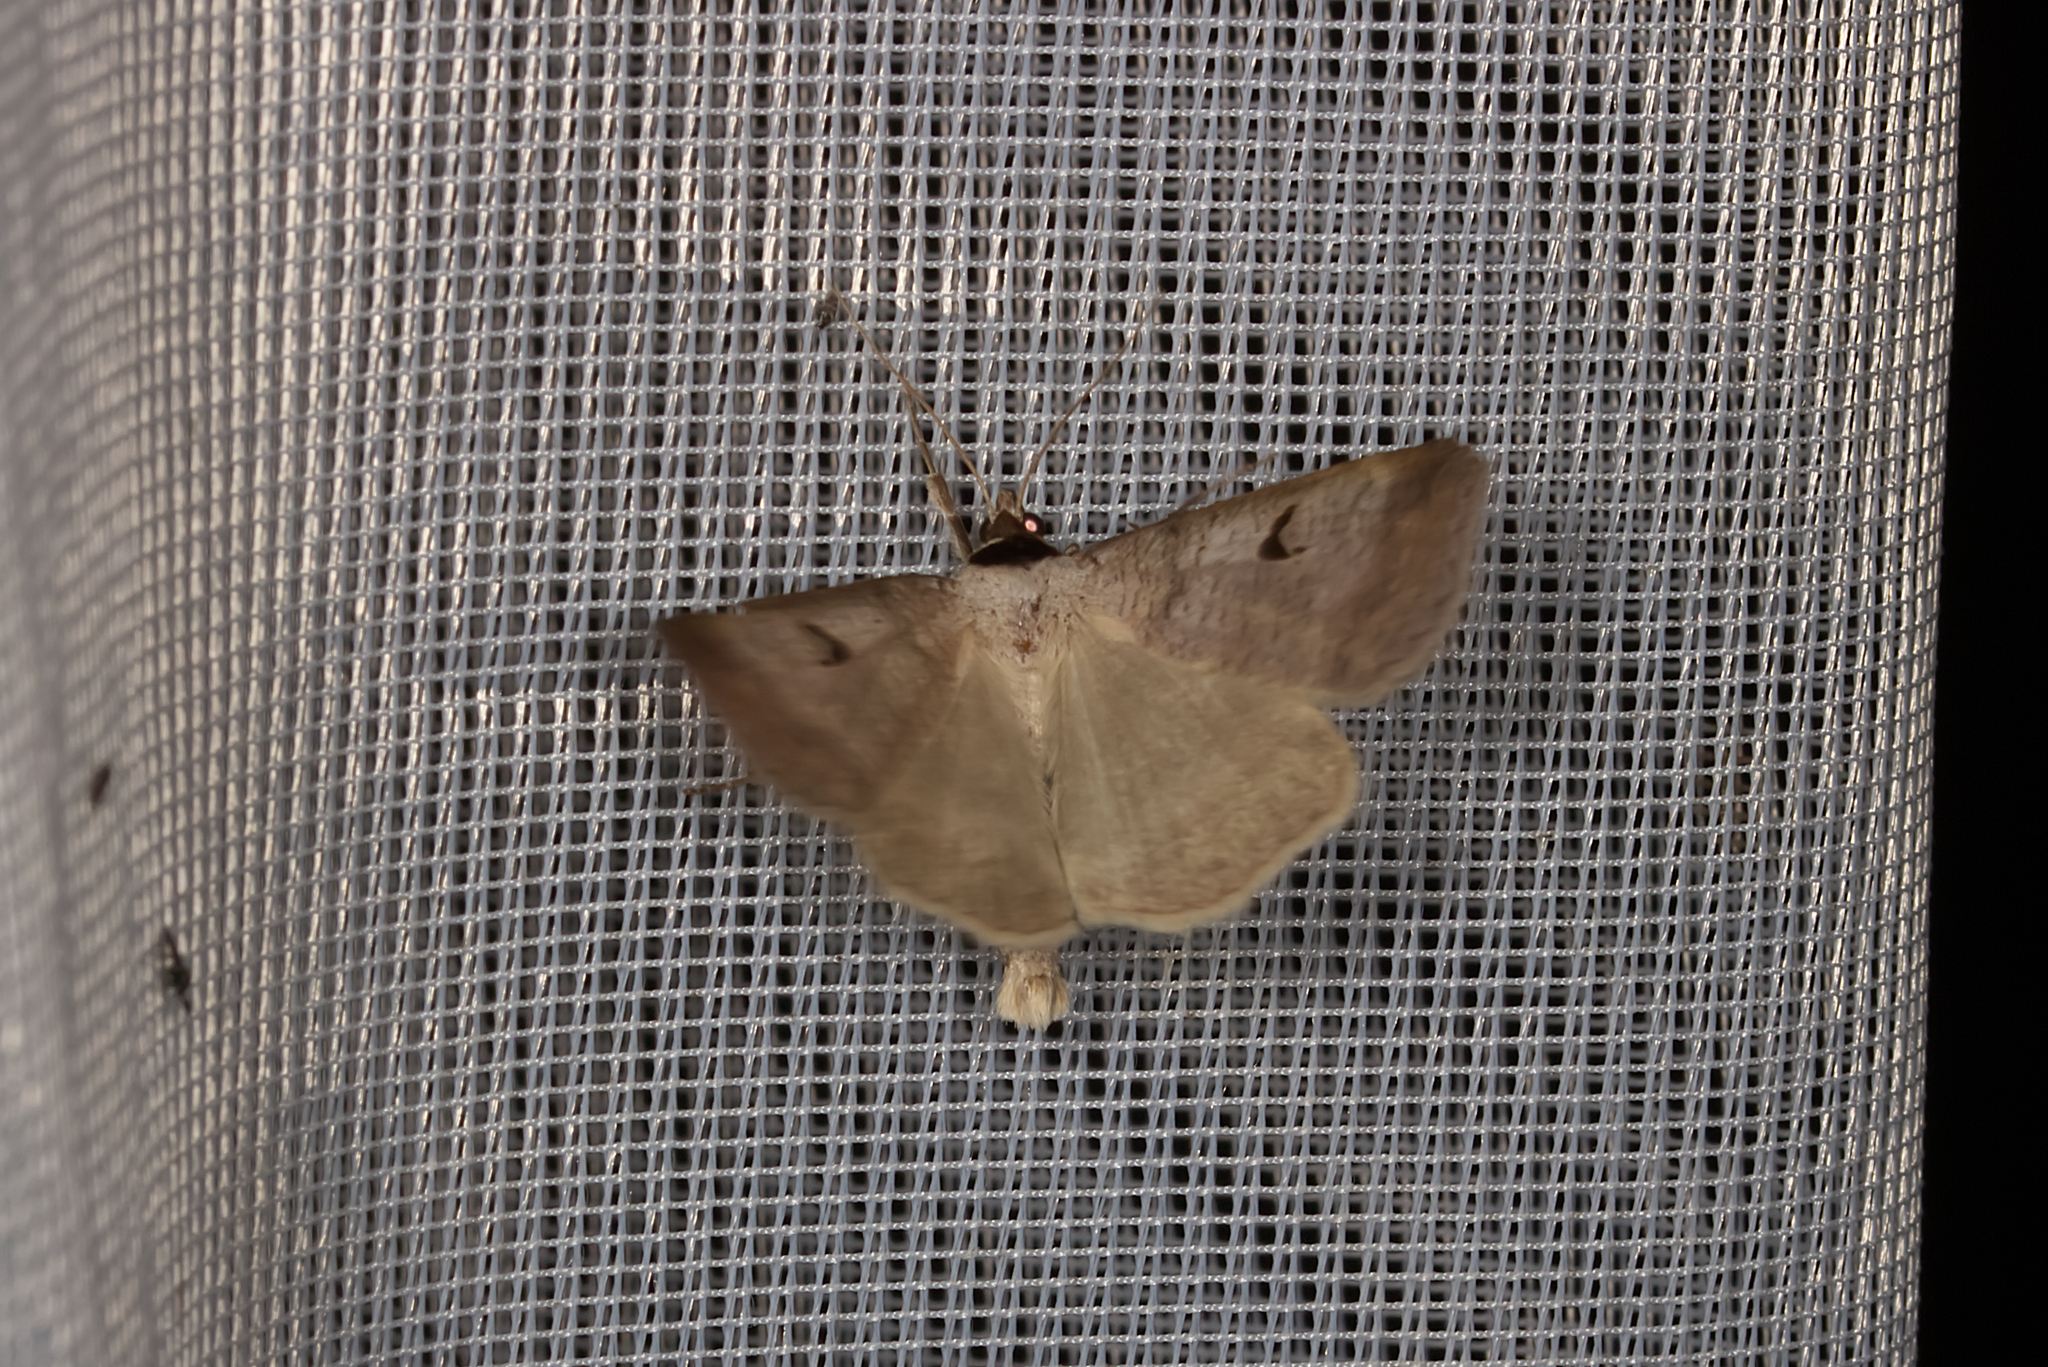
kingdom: Animalia
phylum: Arthropoda
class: Insecta
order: Lepidoptera
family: Erebidae
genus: Lygephila
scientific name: Lygephila pastinum
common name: Blackneck
